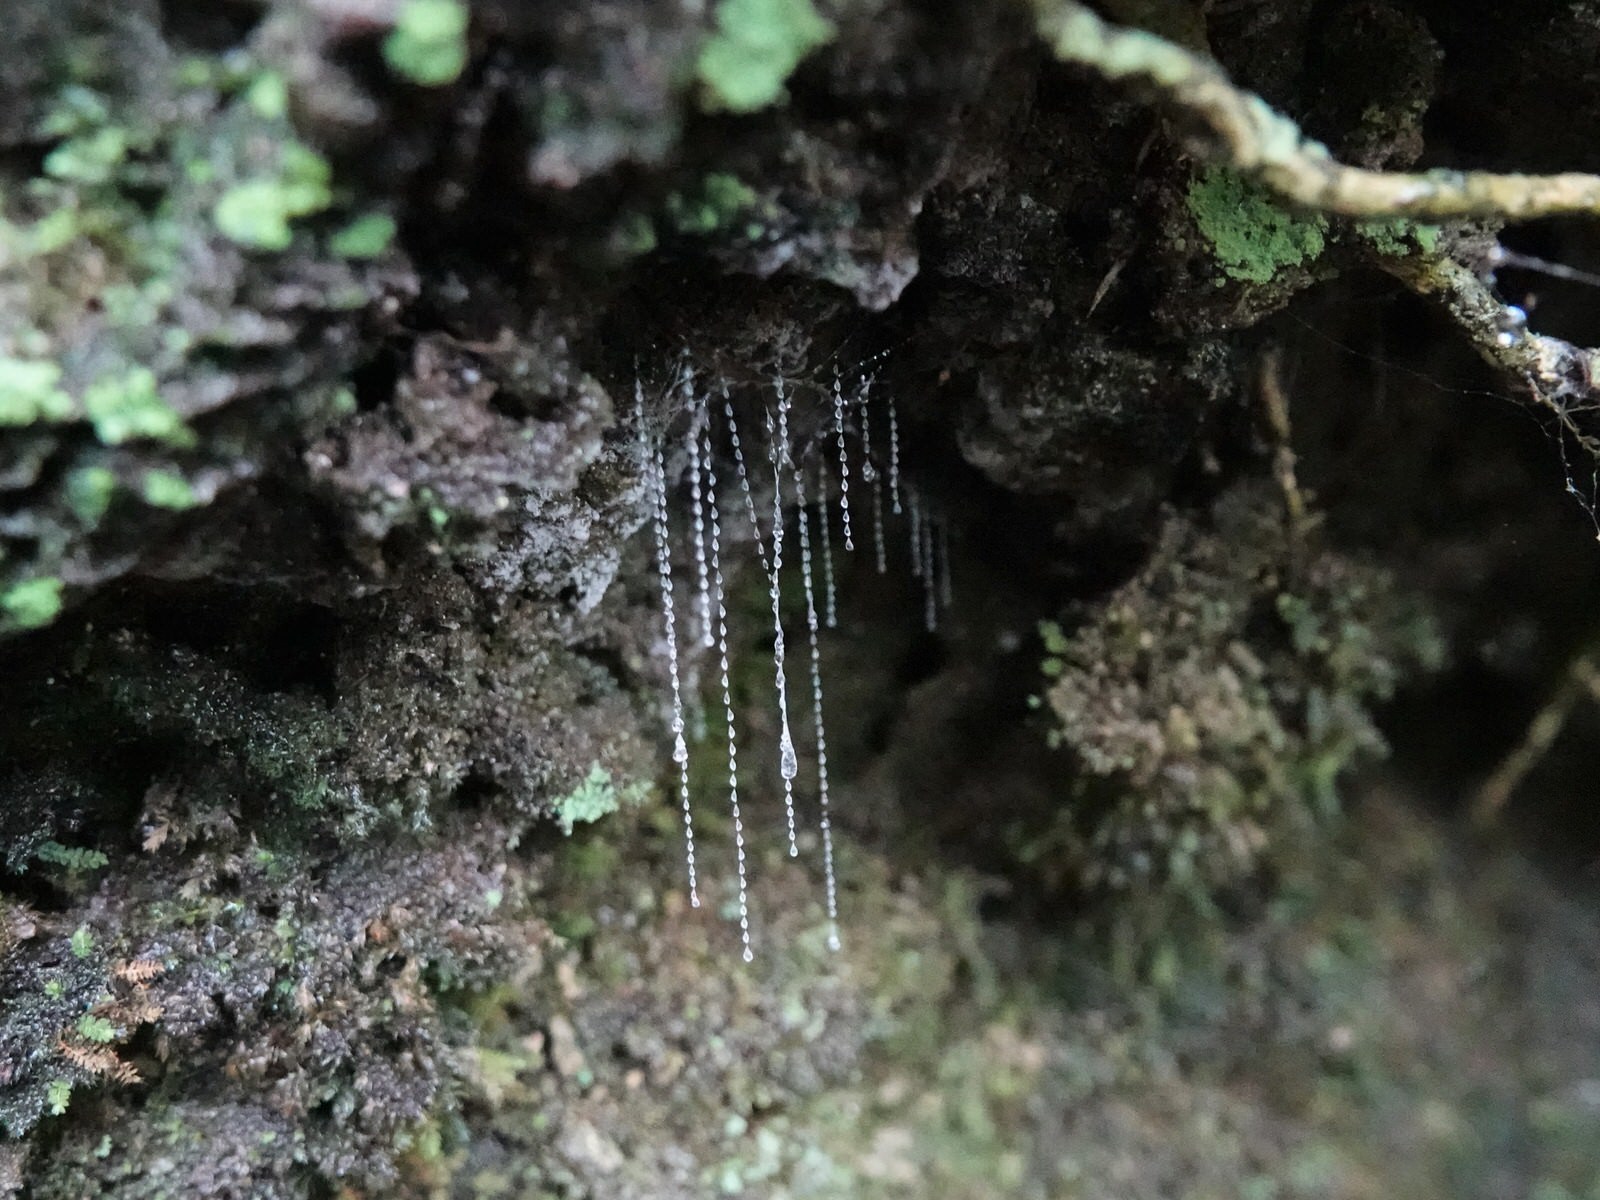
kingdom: Animalia
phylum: Arthropoda
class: Insecta
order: Diptera
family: Keroplatidae
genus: Arachnocampa
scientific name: Arachnocampa luminosa
